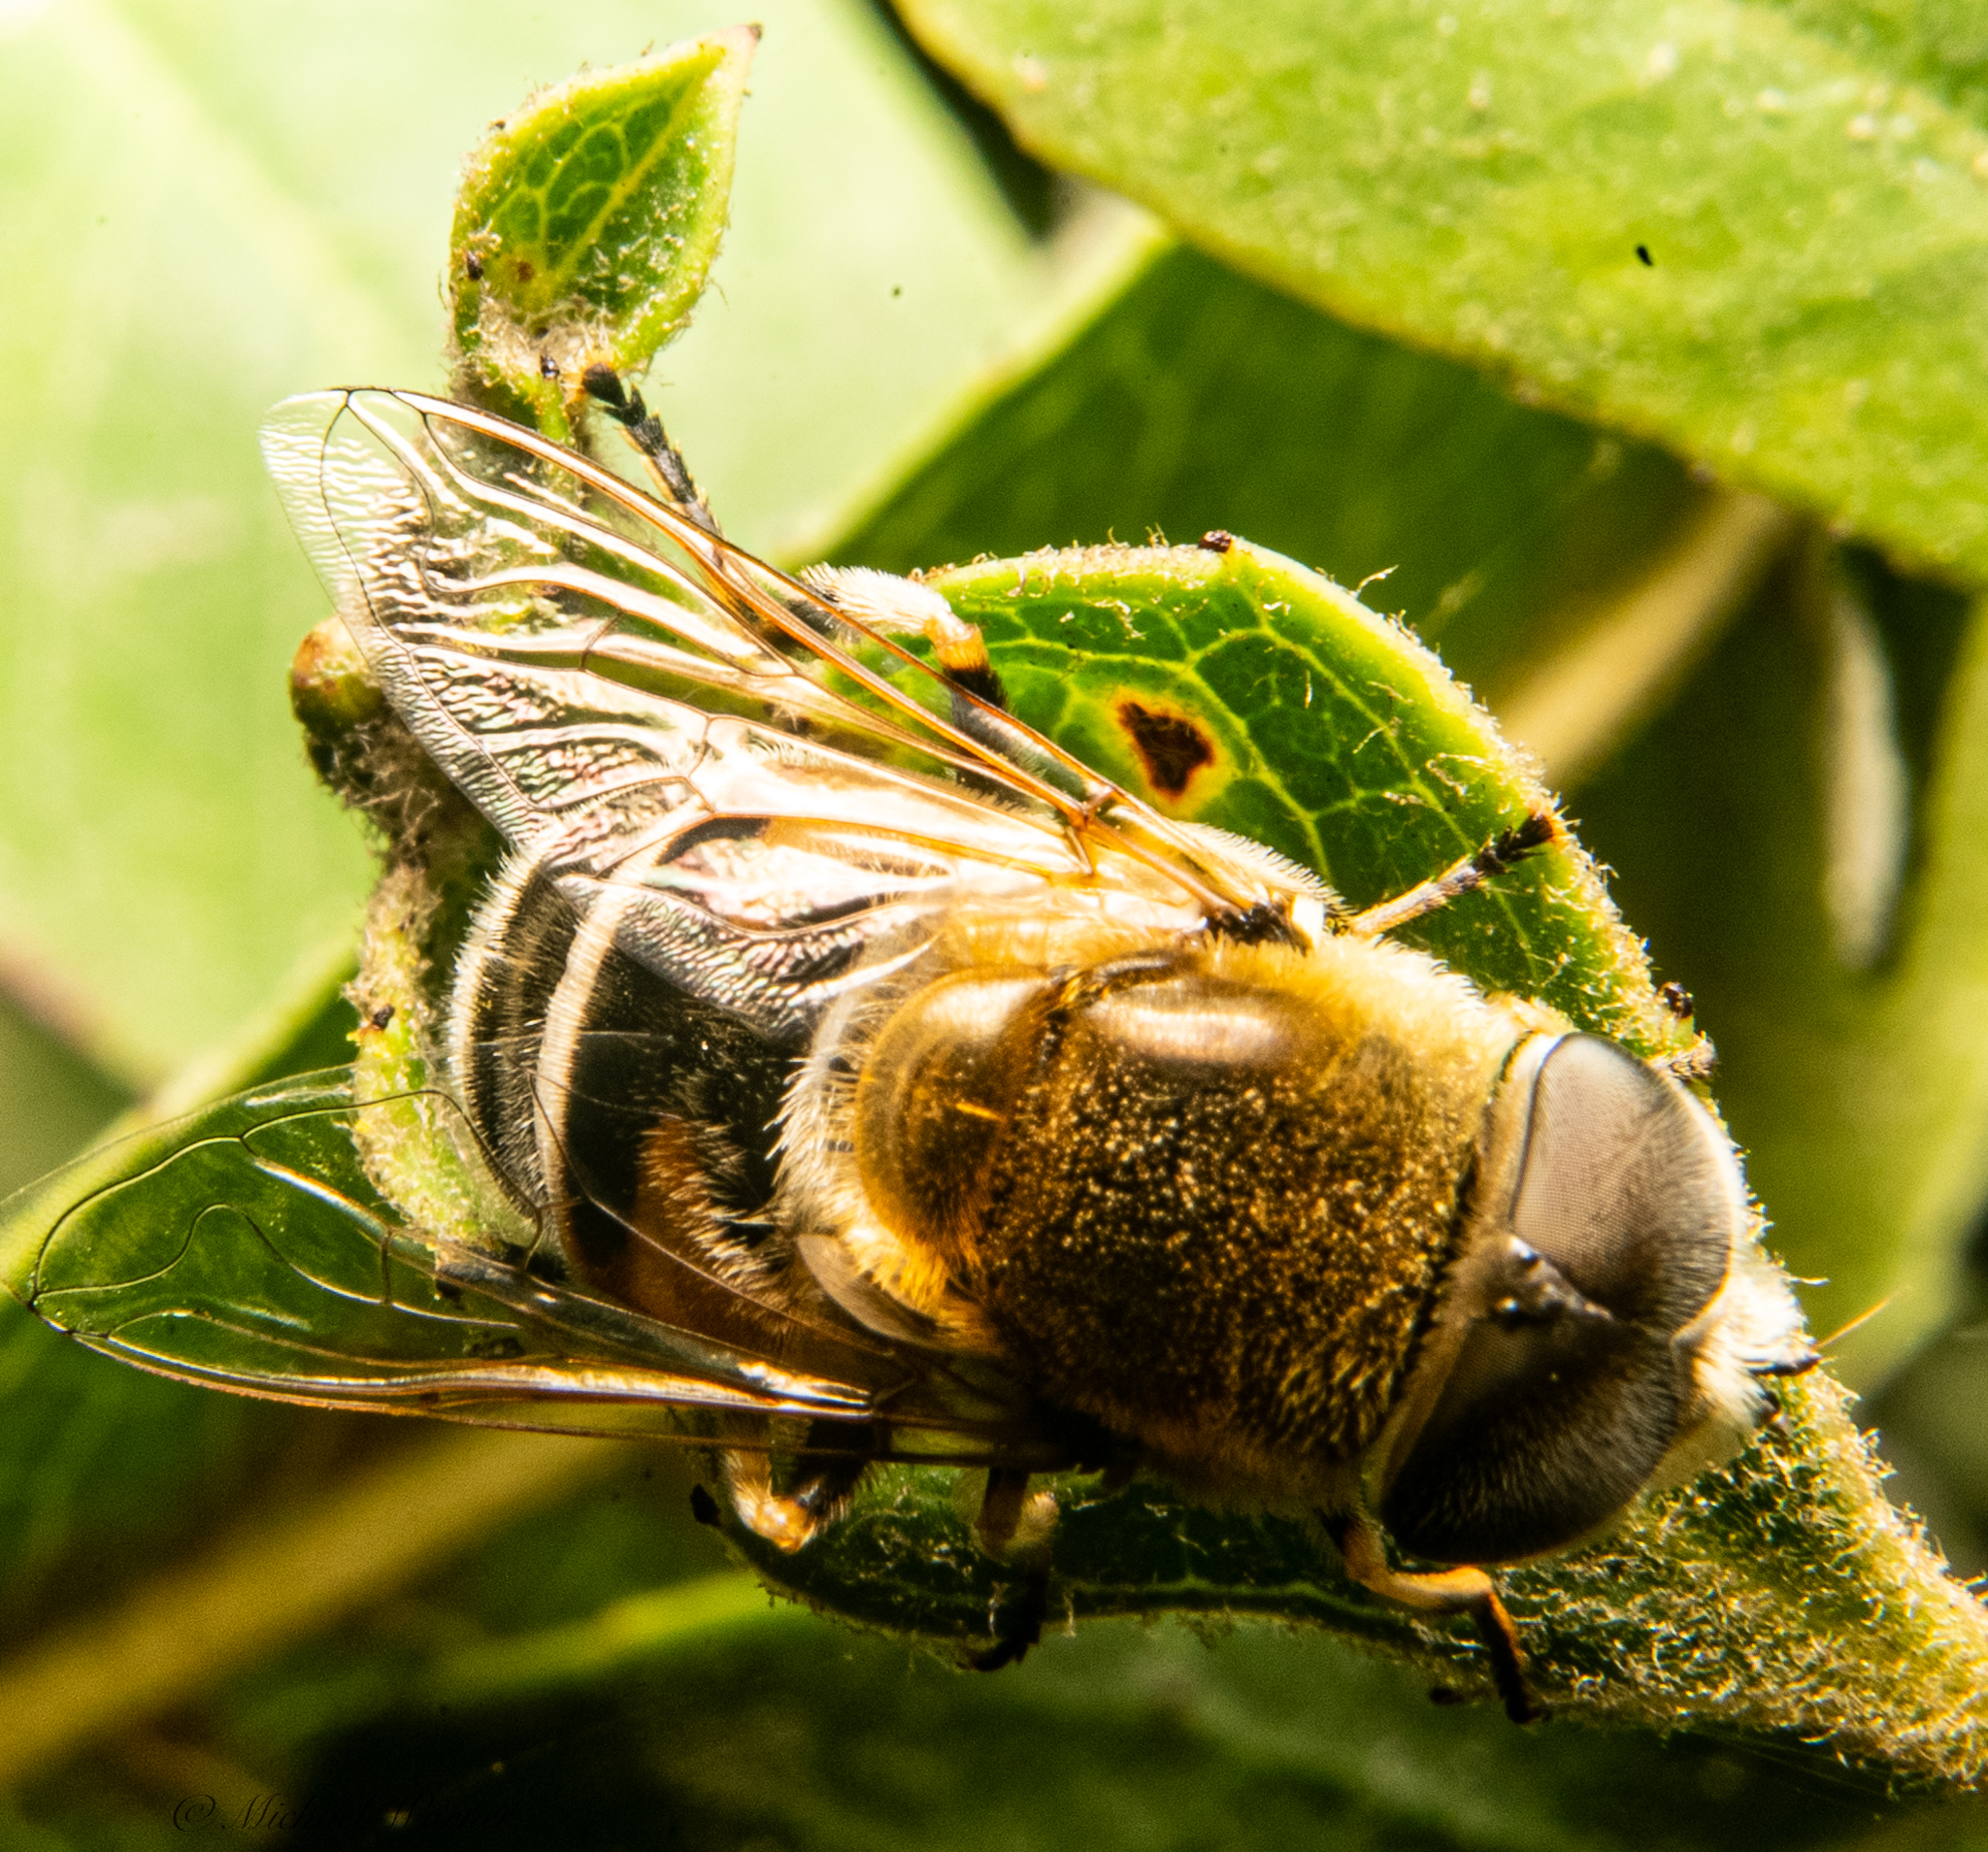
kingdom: Animalia
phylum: Arthropoda
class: Insecta
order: Diptera
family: Syrphidae
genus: Eristalis
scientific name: Eristalis hirta
